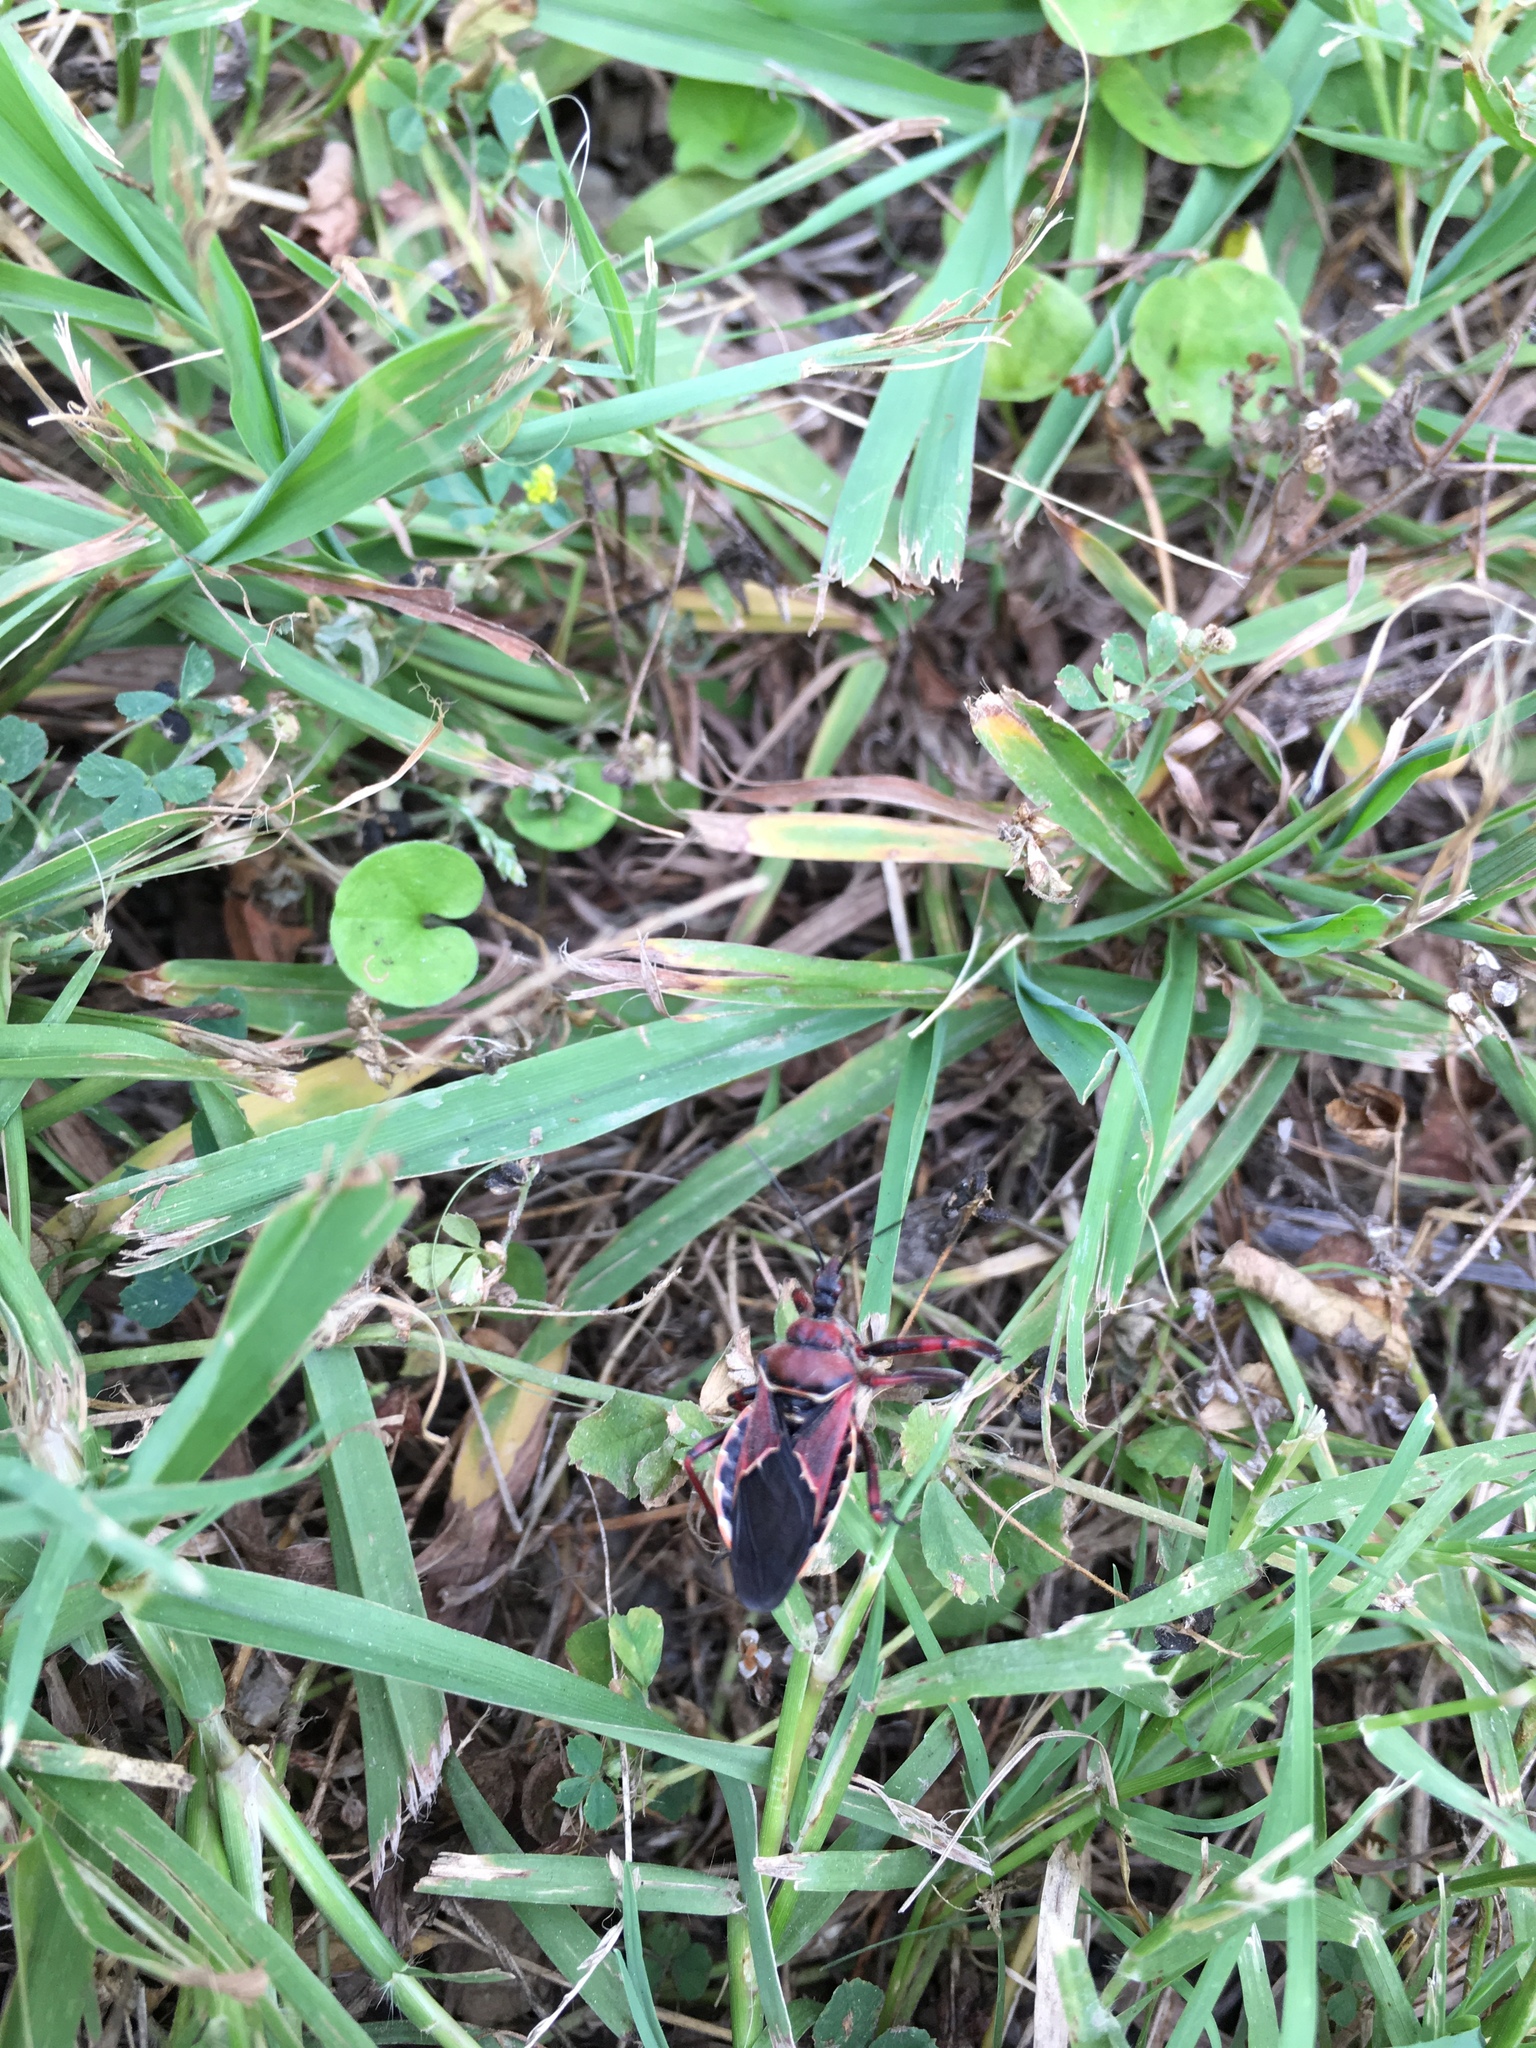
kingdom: Animalia
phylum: Arthropoda
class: Insecta
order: Hemiptera
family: Reduviidae
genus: Apiomerus
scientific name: Apiomerus spissipes
